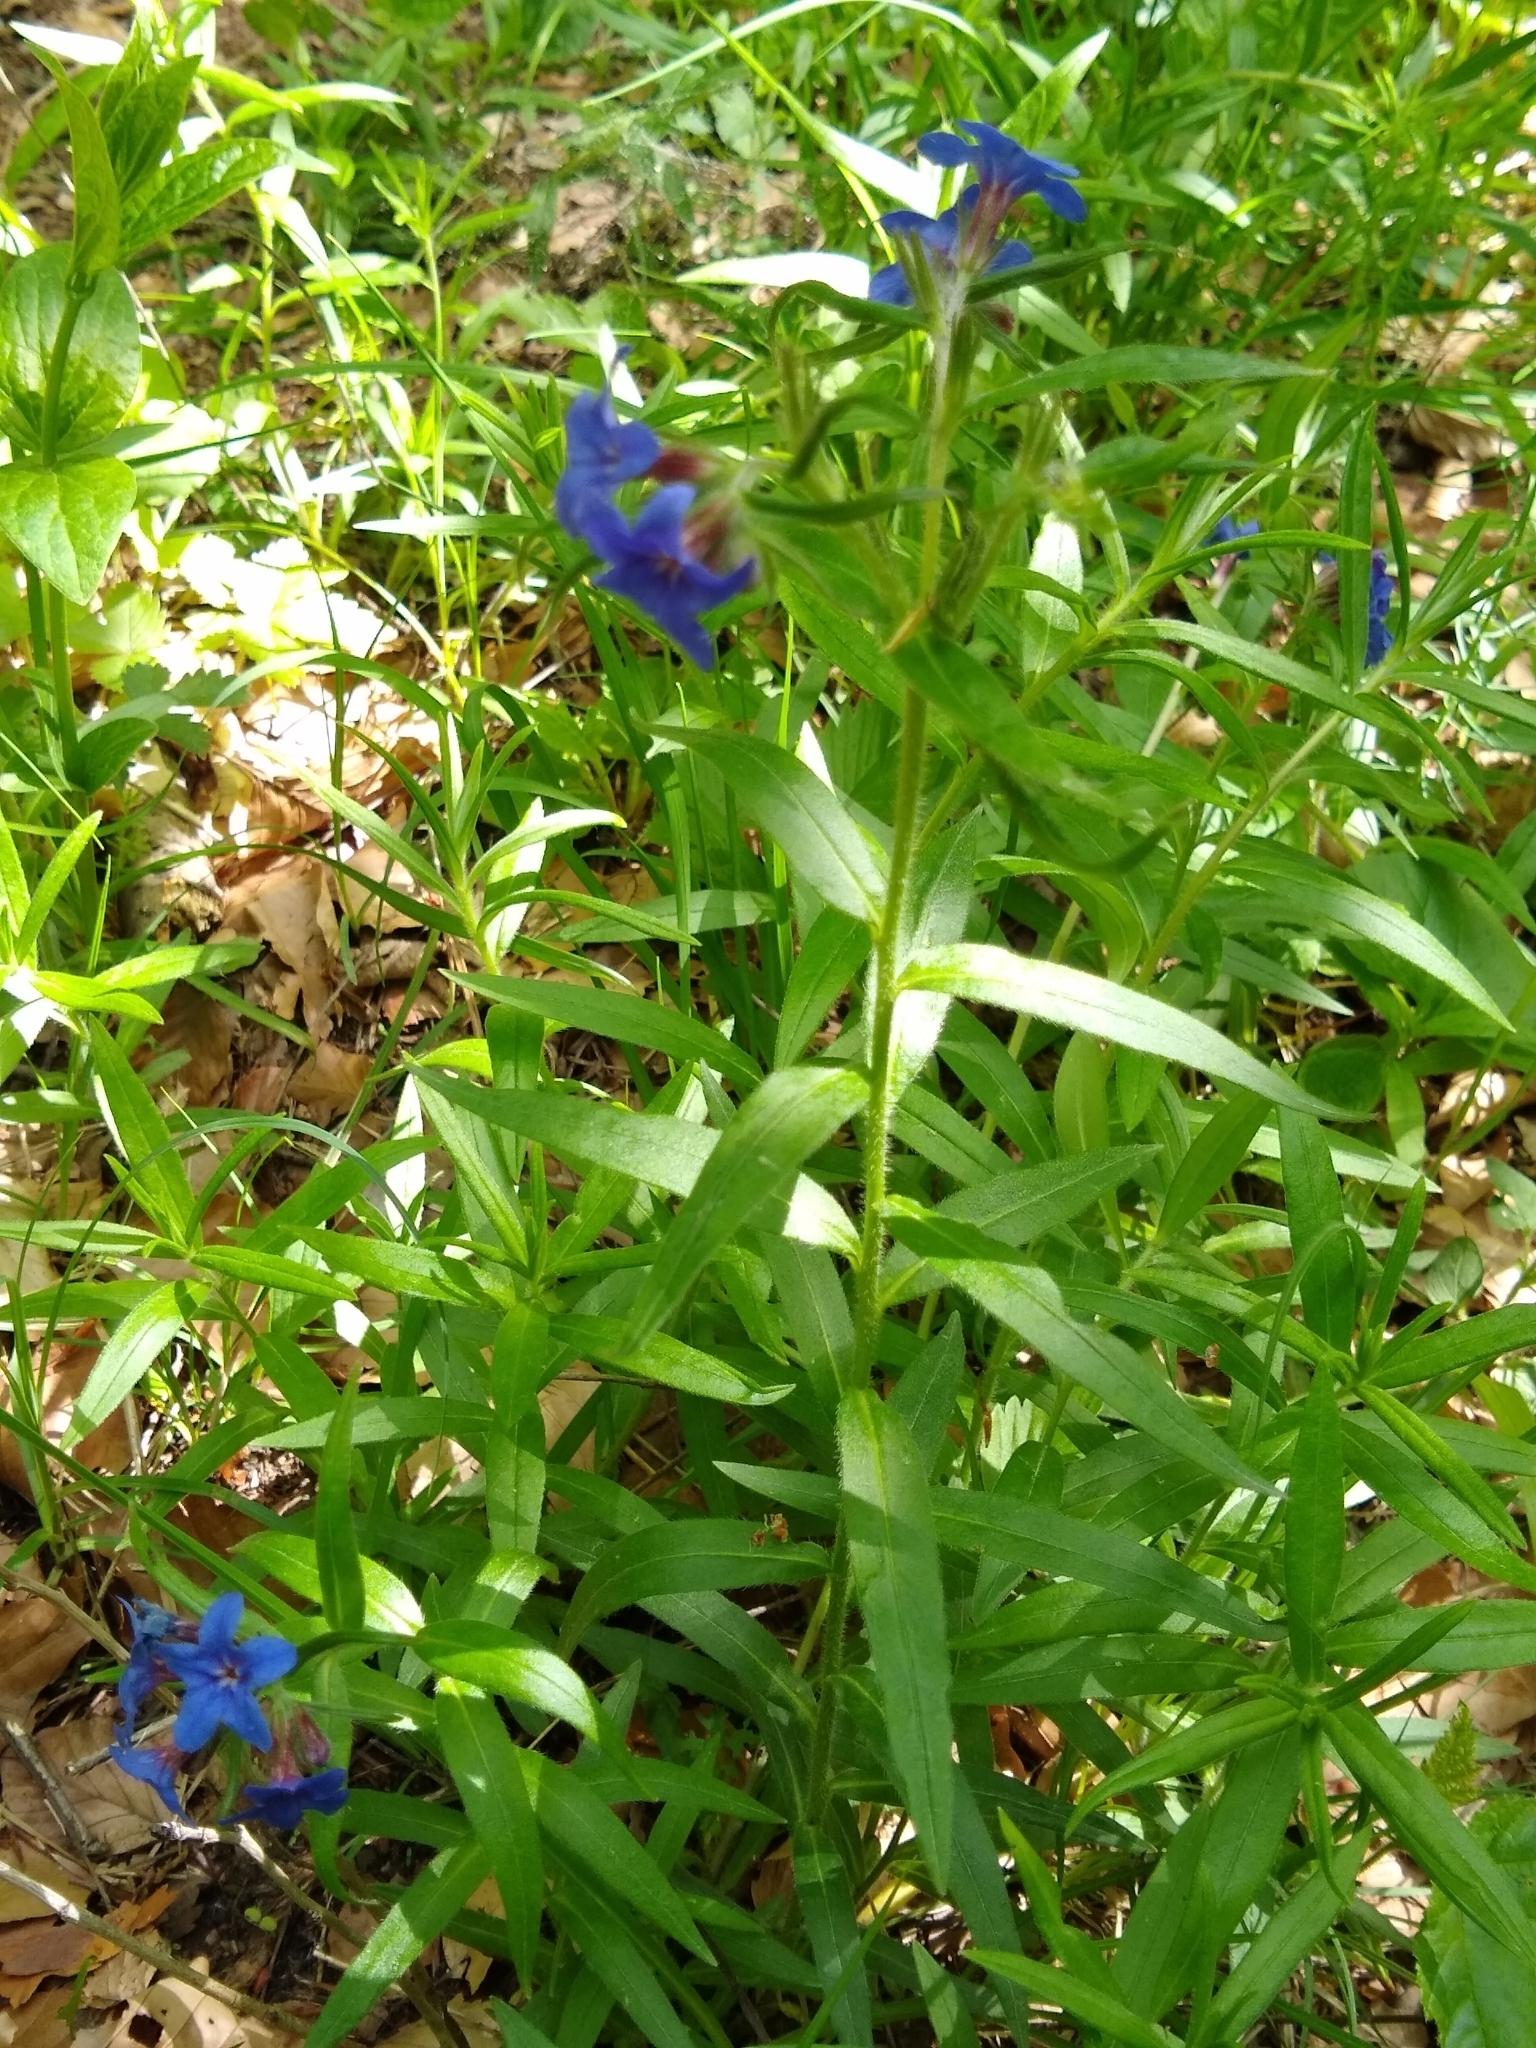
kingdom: Plantae
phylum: Tracheophyta
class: Magnoliopsida
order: Boraginales
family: Boraginaceae
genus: Aegonychon
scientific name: Aegonychon purpurocaeruleum
